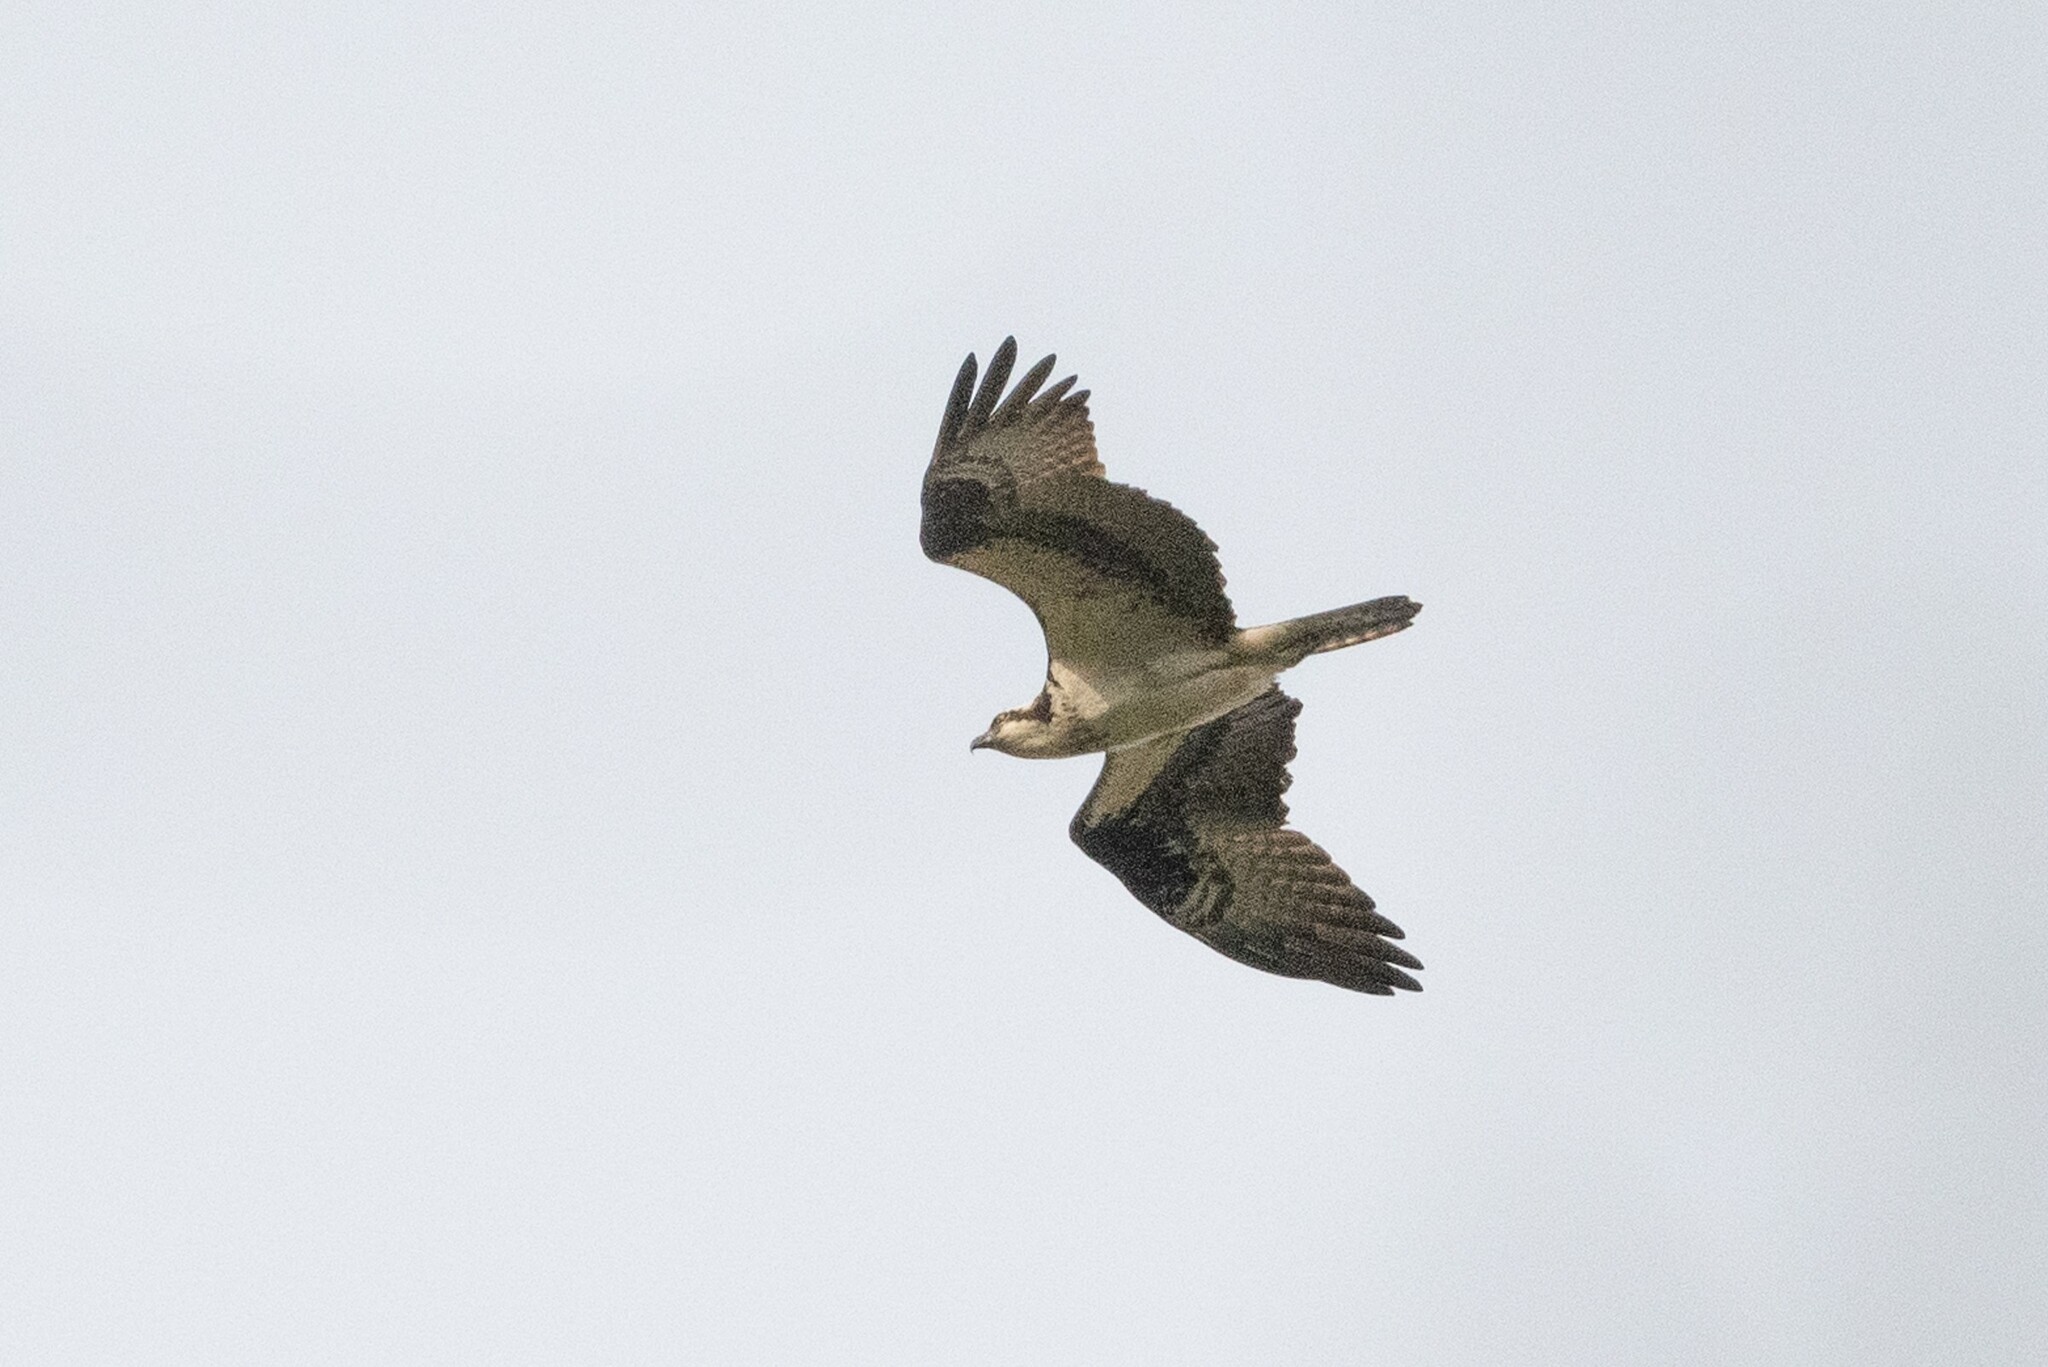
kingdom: Animalia
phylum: Chordata
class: Aves
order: Accipitriformes
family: Pandionidae
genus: Pandion
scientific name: Pandion haliaetus
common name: Osprey
